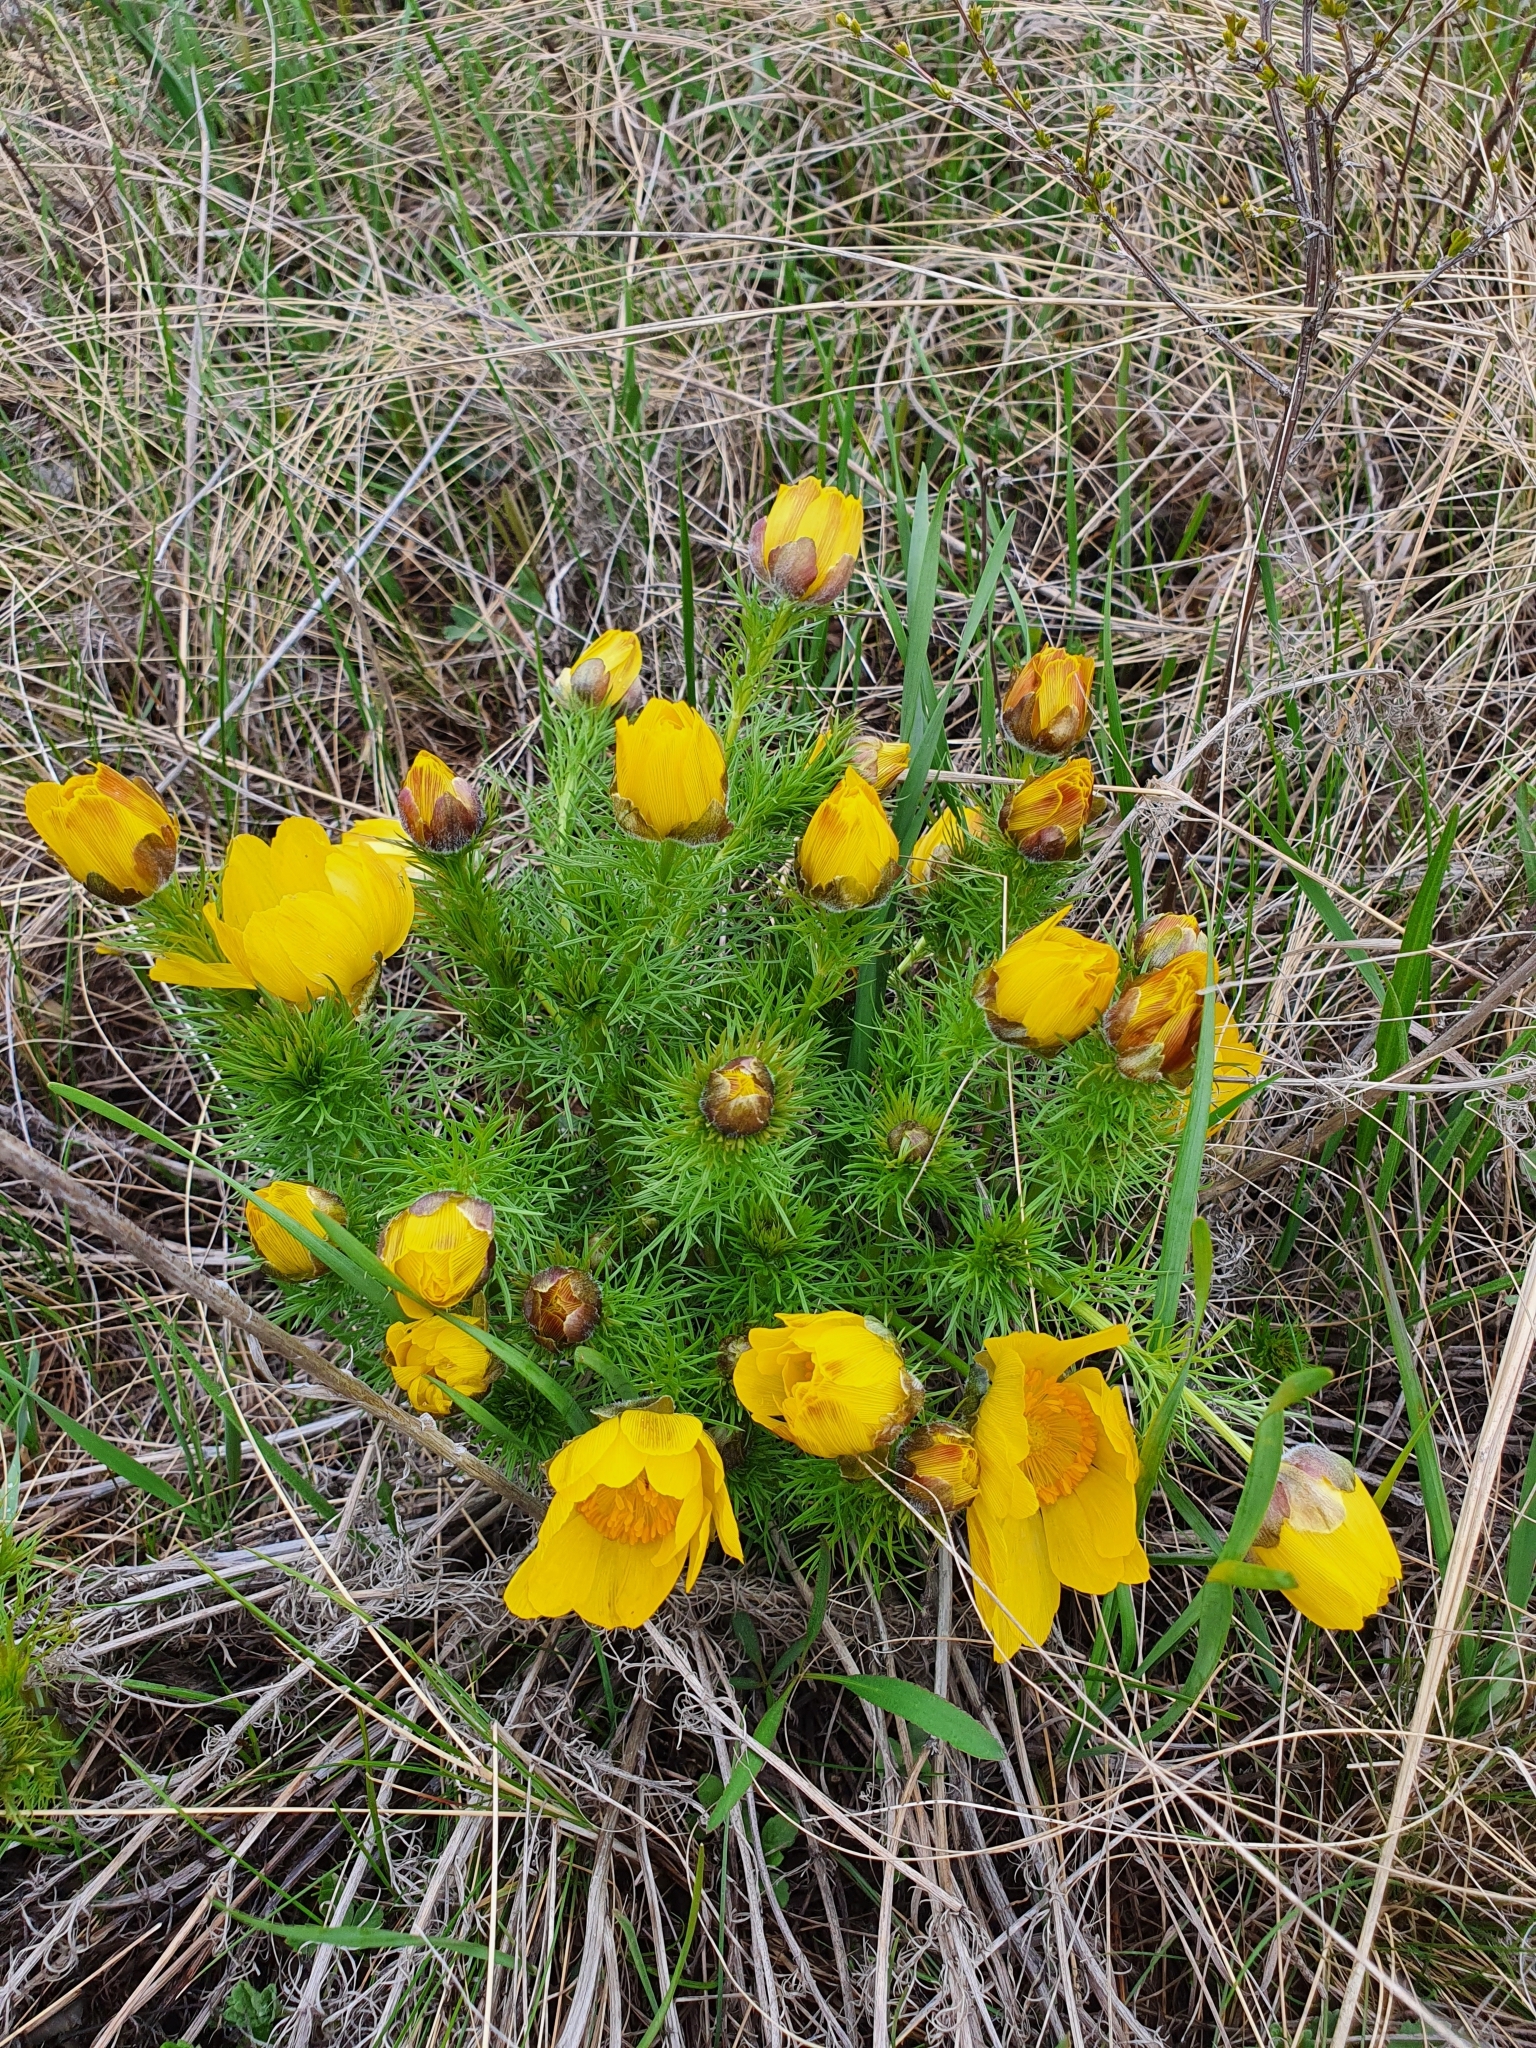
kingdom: Plantae
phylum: Tracheophyta
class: Magnoliopsida
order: Ranunculales
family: Ranunculaceae
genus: Adonis
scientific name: Adonis vernalis
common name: Yellow pheasants-eye
